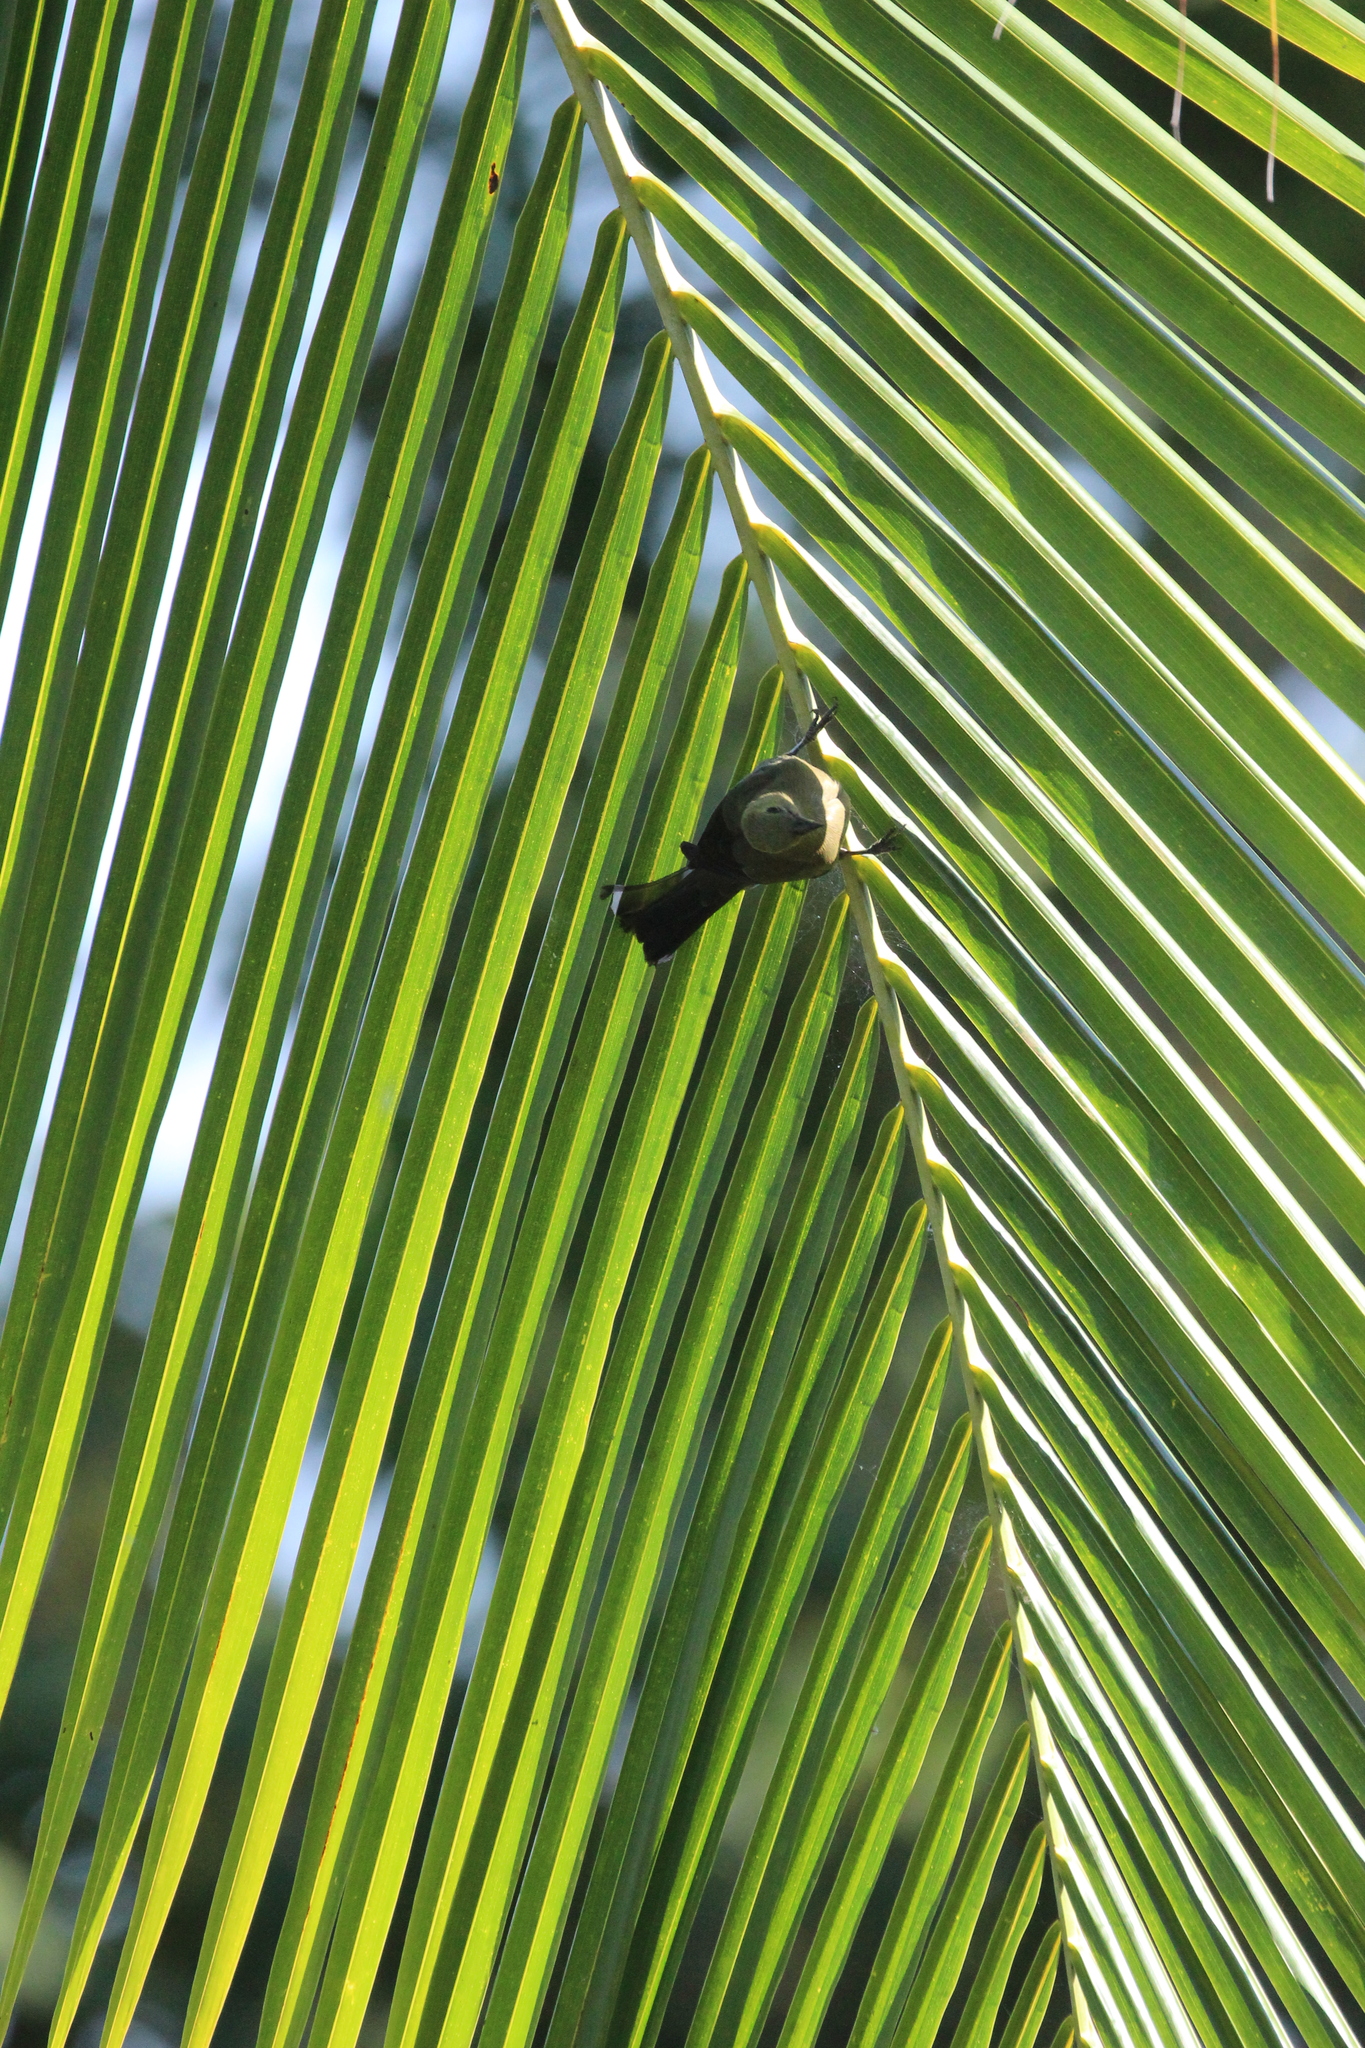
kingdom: Animalia
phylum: Chordata
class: Aves
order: Passeriformes
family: Thraupidae
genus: Thraupis
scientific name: Thraupis palmarum
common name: Palm tanager
